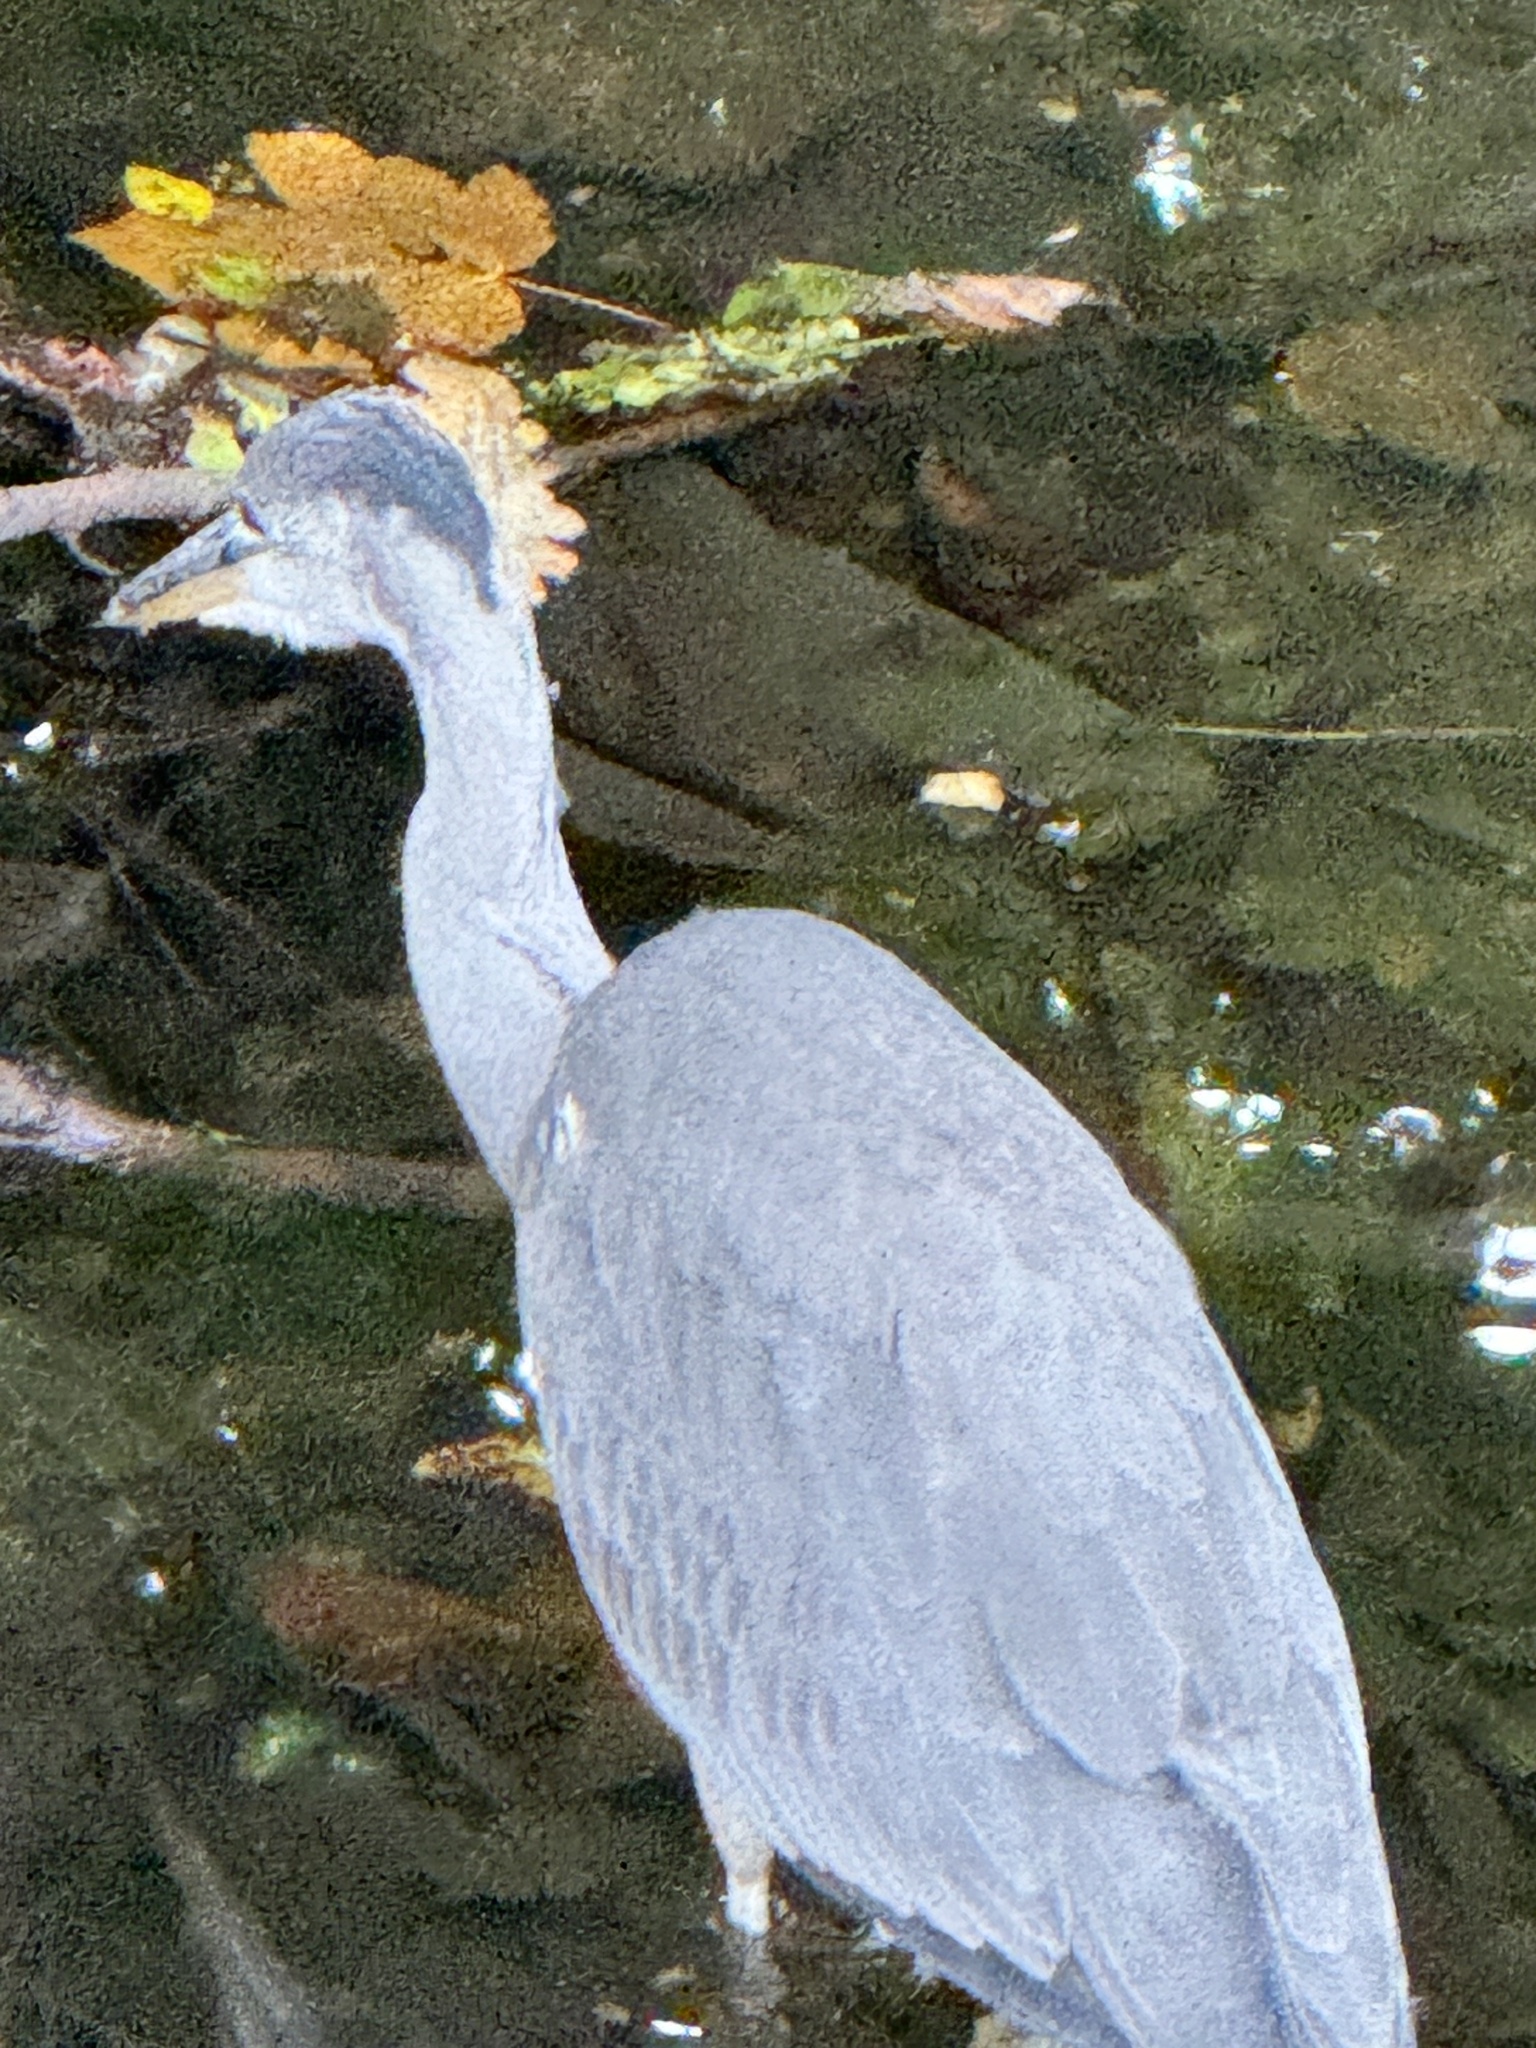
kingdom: Animalia
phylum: Chordata
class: Aves
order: Pelecaniformes
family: Ardeidae
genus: Ardea
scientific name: Ardea cinerea
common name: Grey heron
